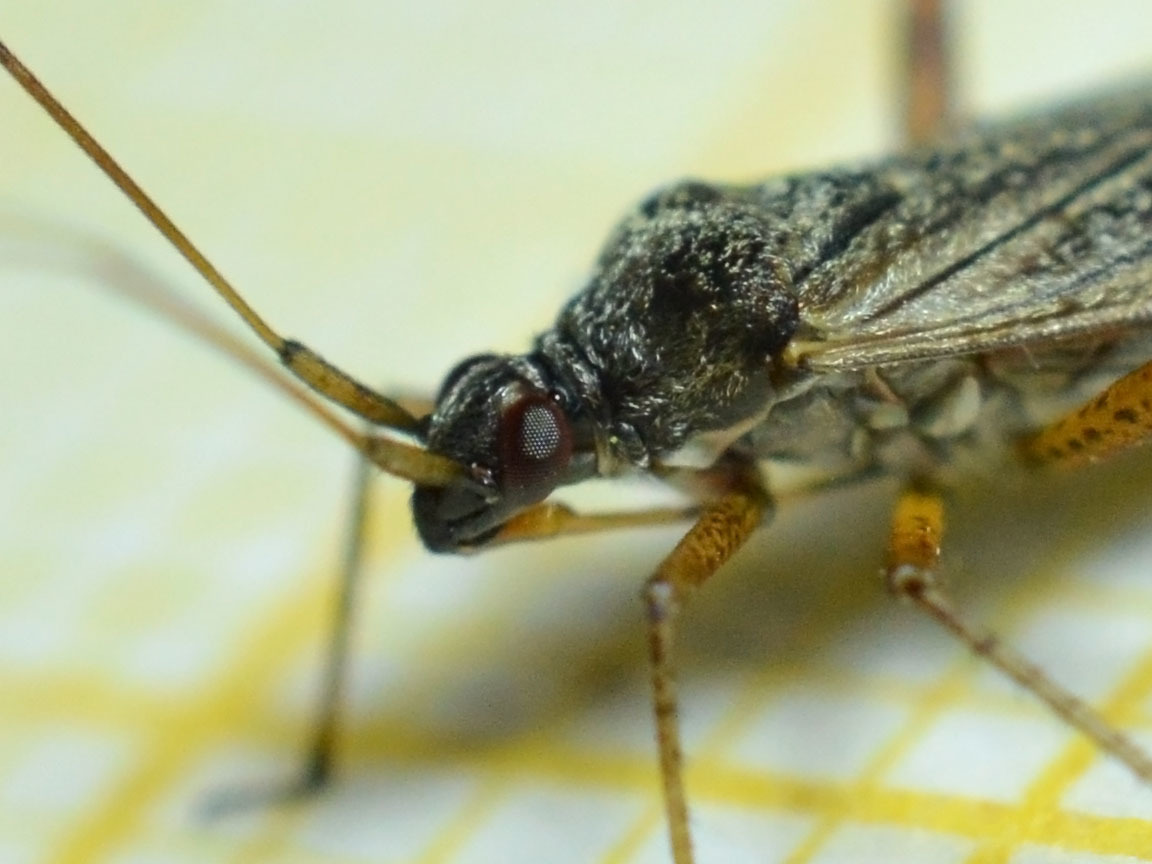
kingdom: Animalia
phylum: Arthropoda
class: Insecta
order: Hemiptera
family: Miridae
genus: Closterotomus
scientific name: Closterotomus fulvomaculatus
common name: Spotted plant bug
